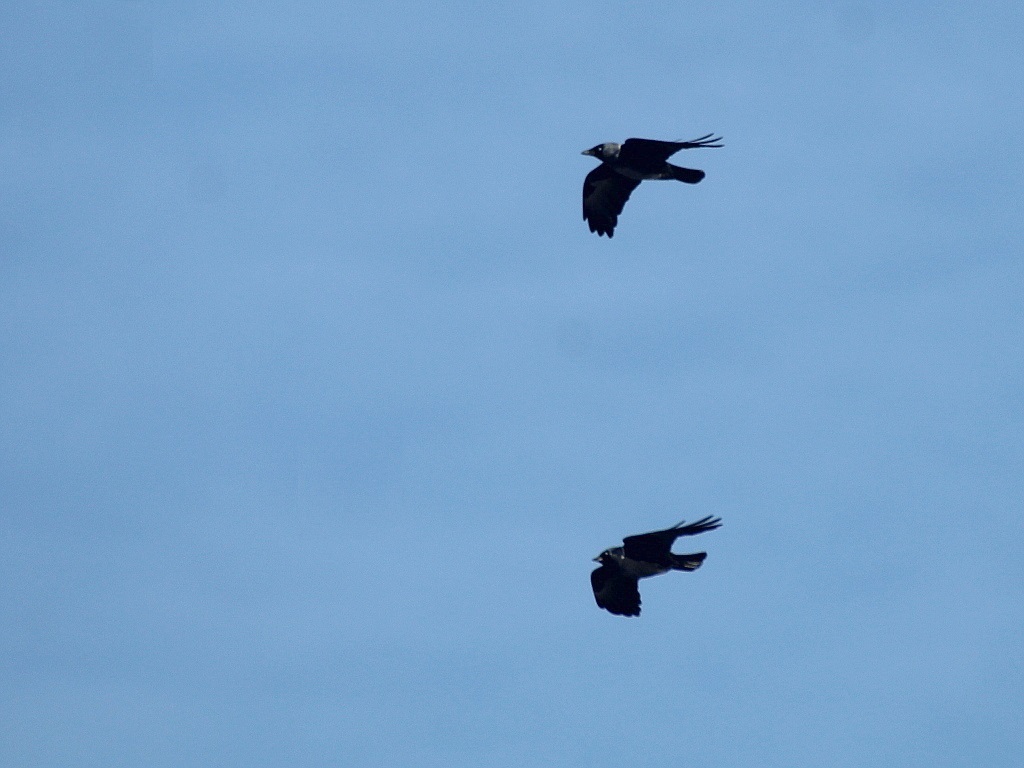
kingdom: Animalia
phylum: Chordata
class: Aves
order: Passeriformes
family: Corvidae
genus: Coloeus
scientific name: Coloeus monedula
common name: Western jackdaw
